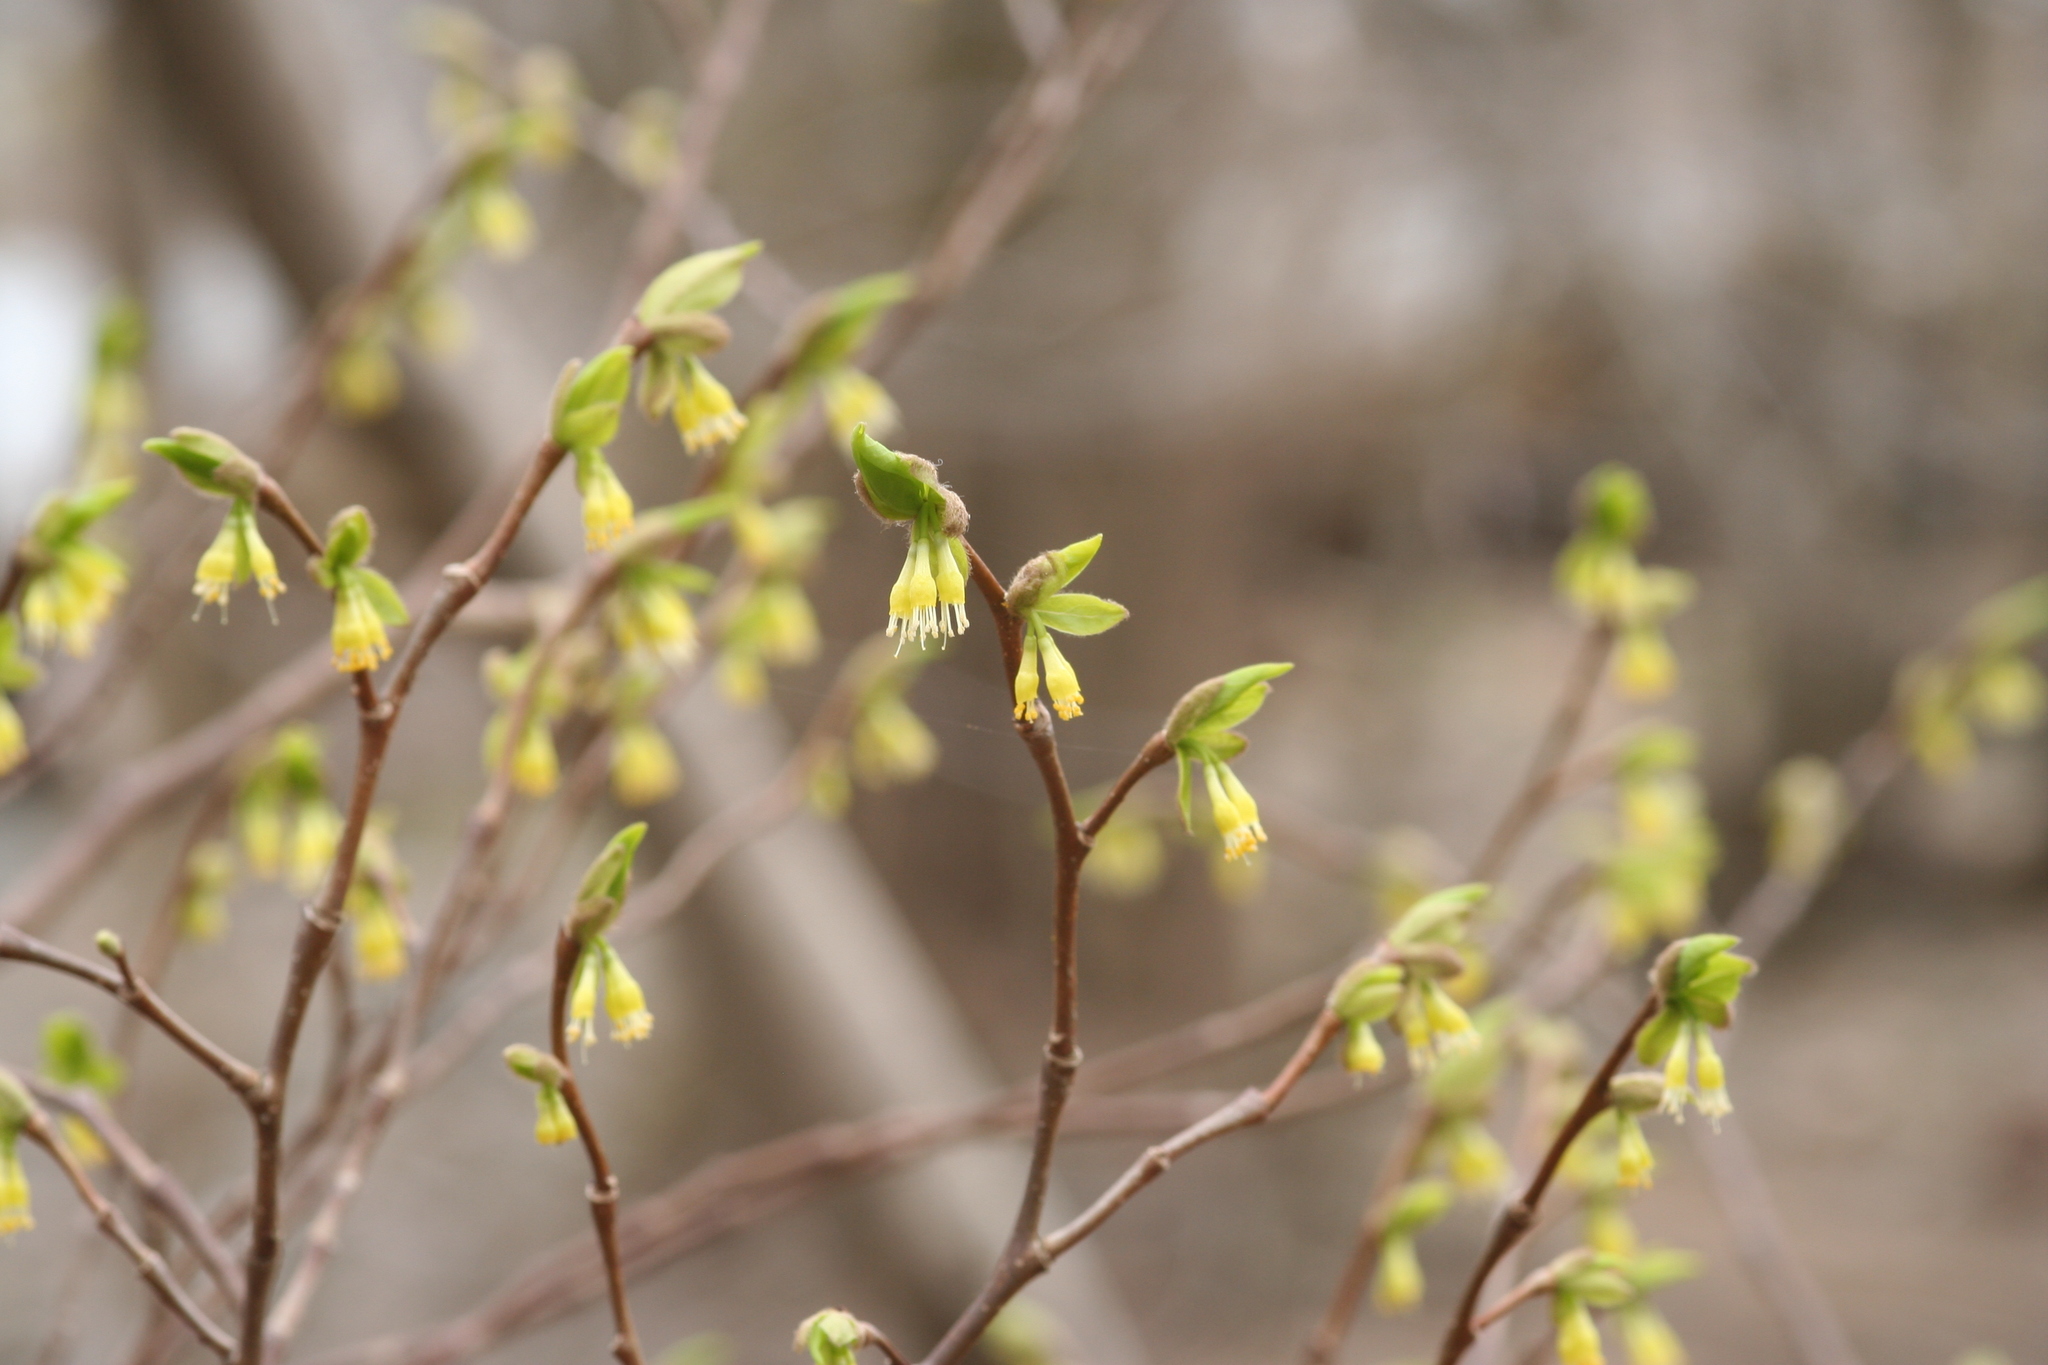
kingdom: Plantae
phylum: Tracheophyta
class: Magnoliopsida
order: Malvales
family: Thymelaeaceae
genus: Dirca
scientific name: Dirca palustris
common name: Leatherwood
